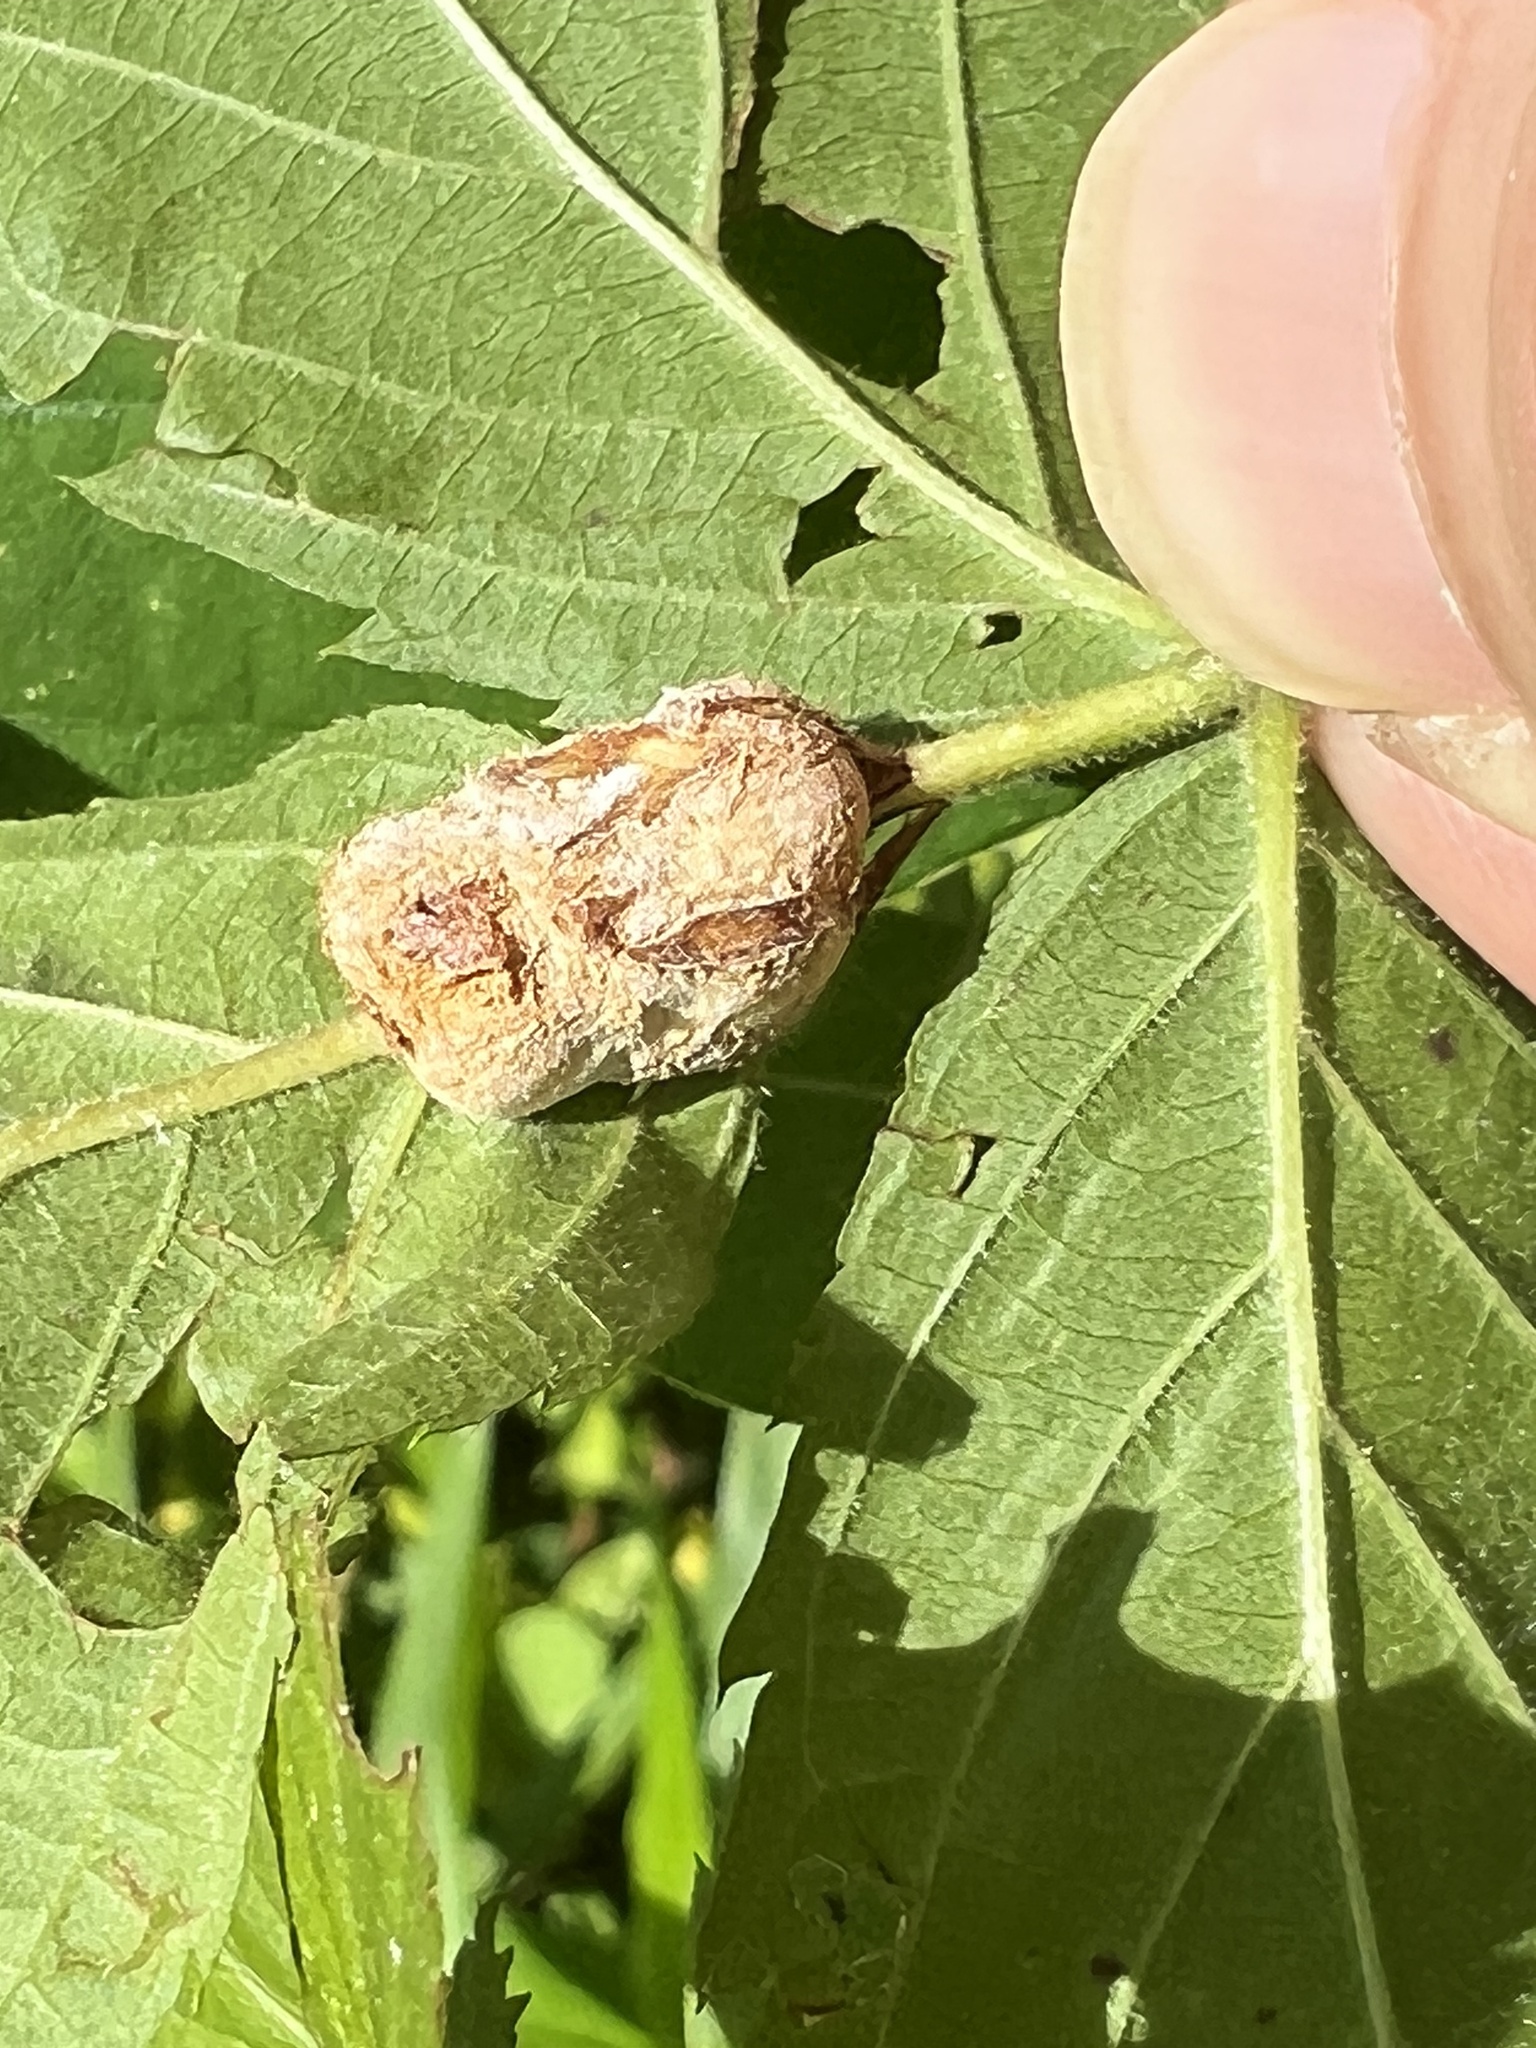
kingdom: Animalia
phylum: Arthropoda
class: Insecta
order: Diptera
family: Cecidomyiidae
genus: Neolasioptera
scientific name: Neolasioptera farinosa
